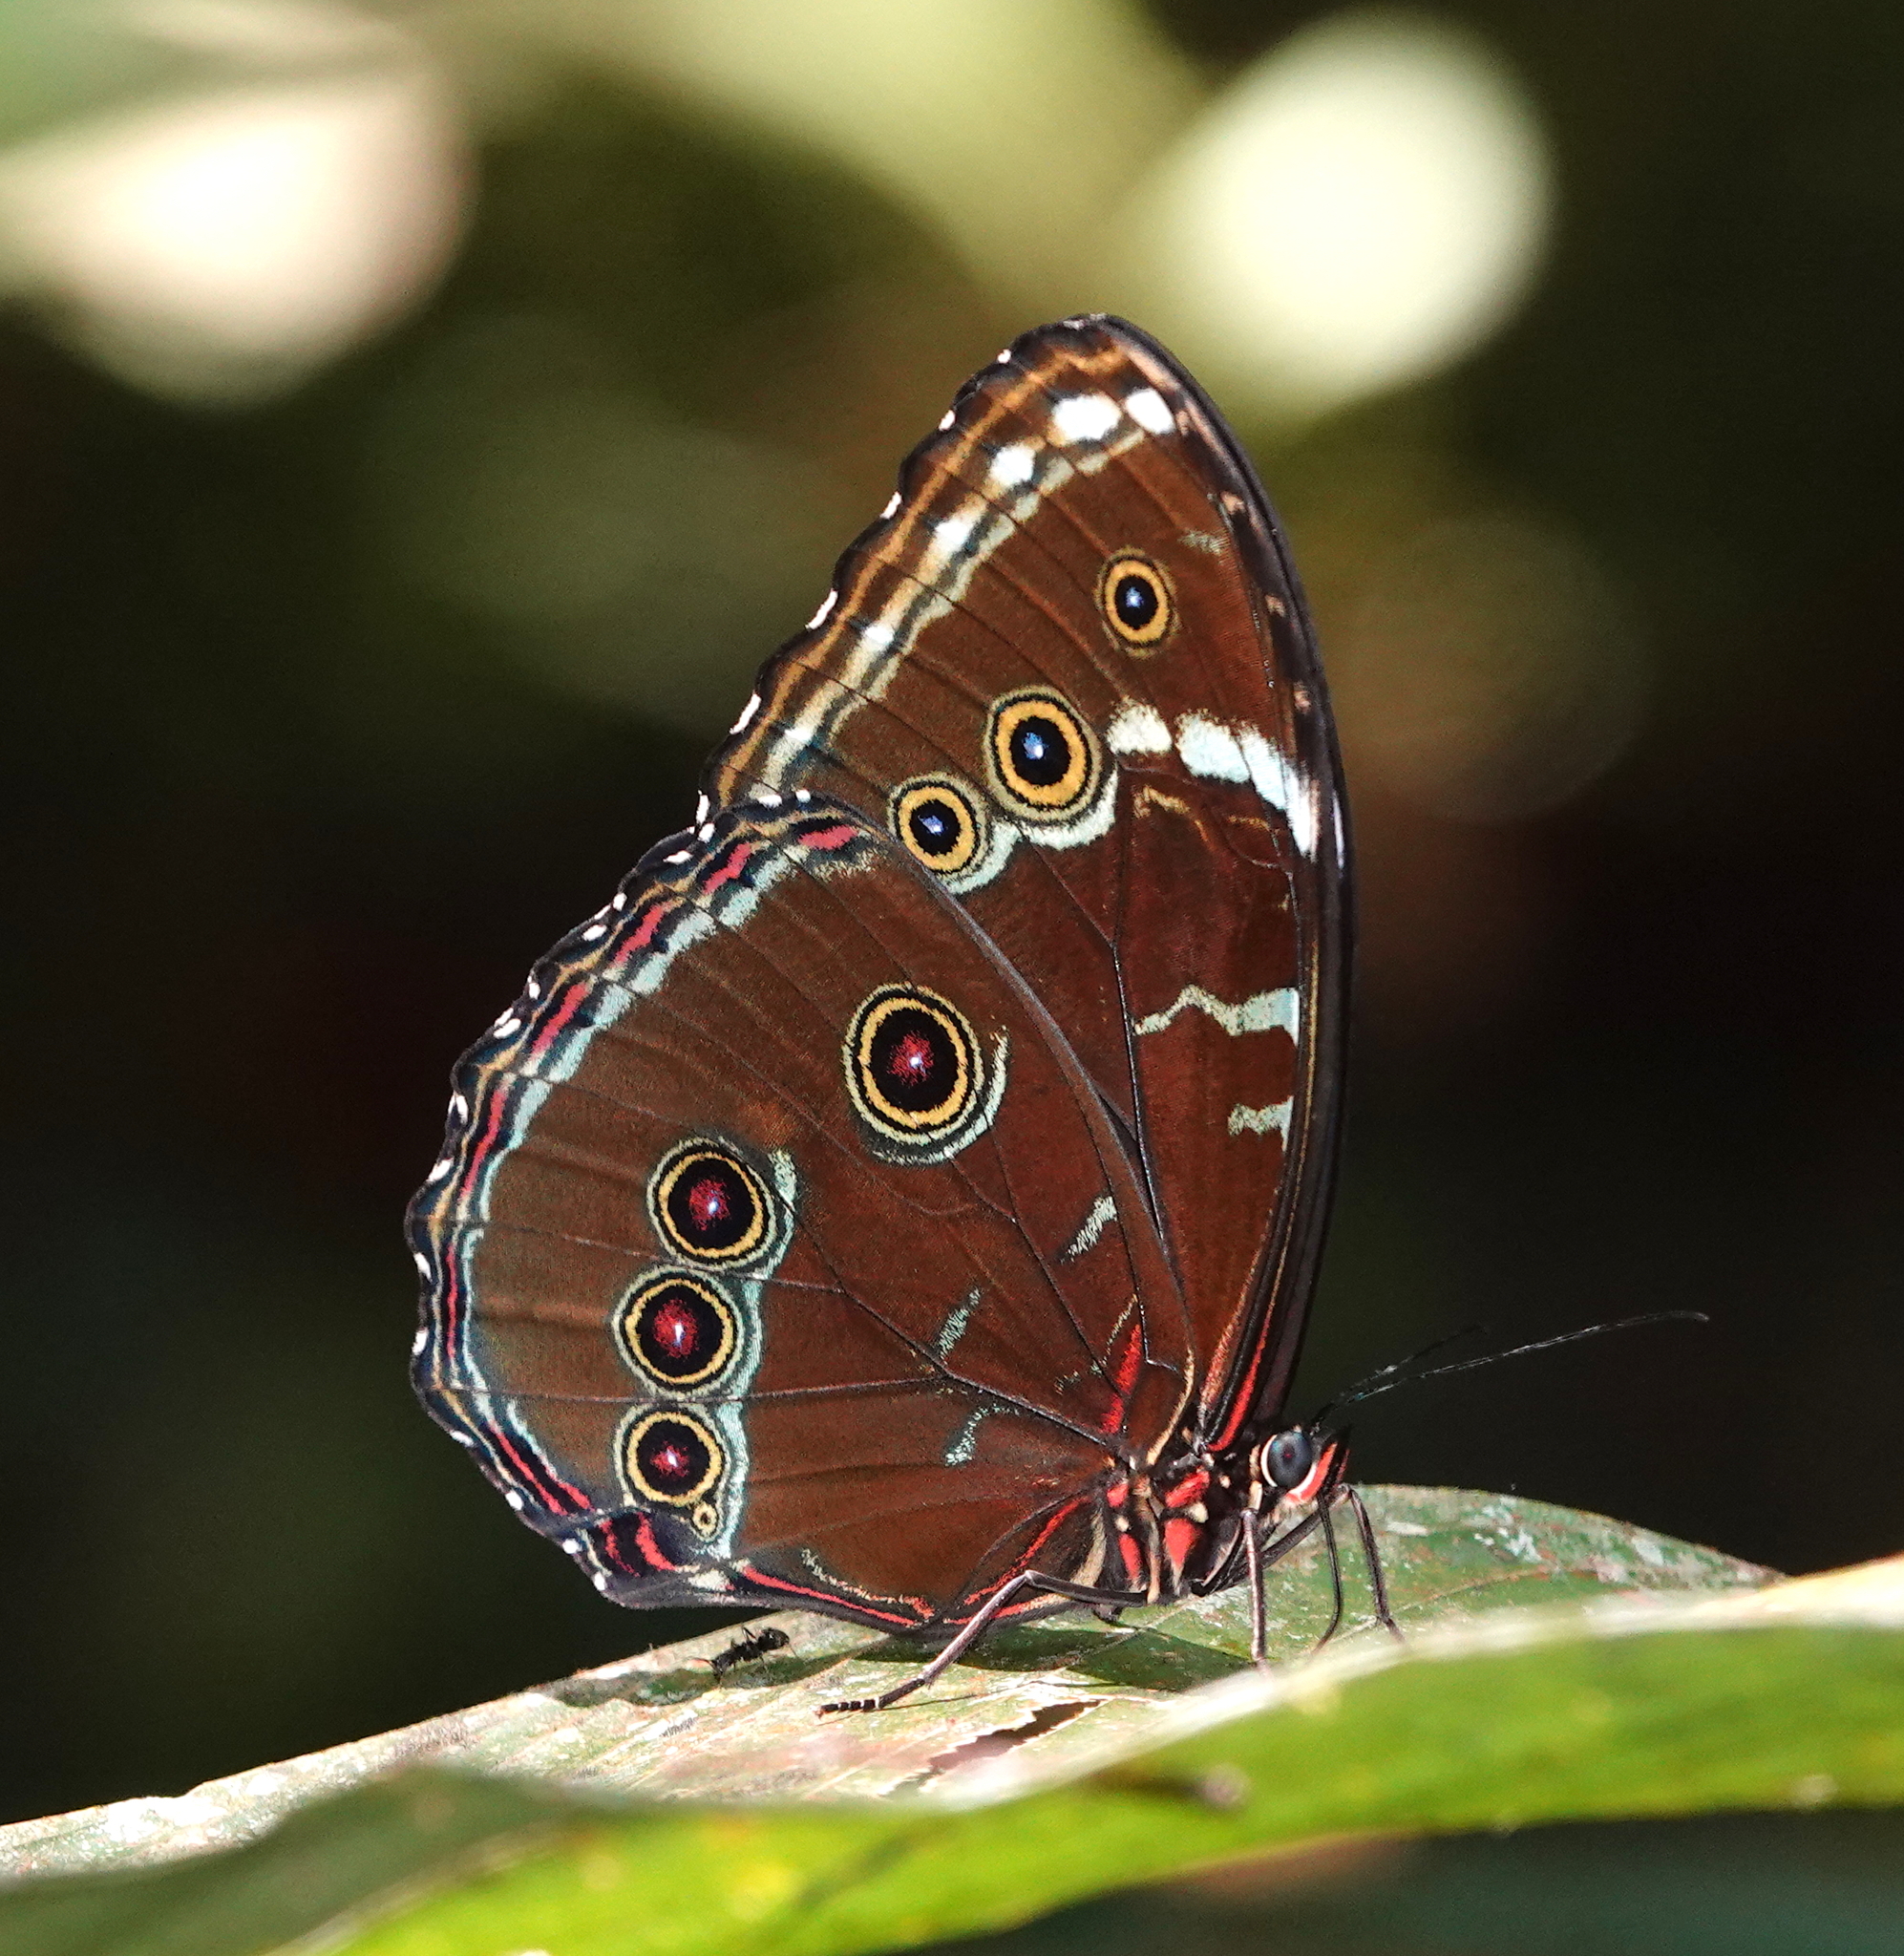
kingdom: Animalia
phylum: Arthropoda
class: Insecta
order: Lepidoptera
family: Nymphalidae
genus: Morpho
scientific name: Morpho helenor
